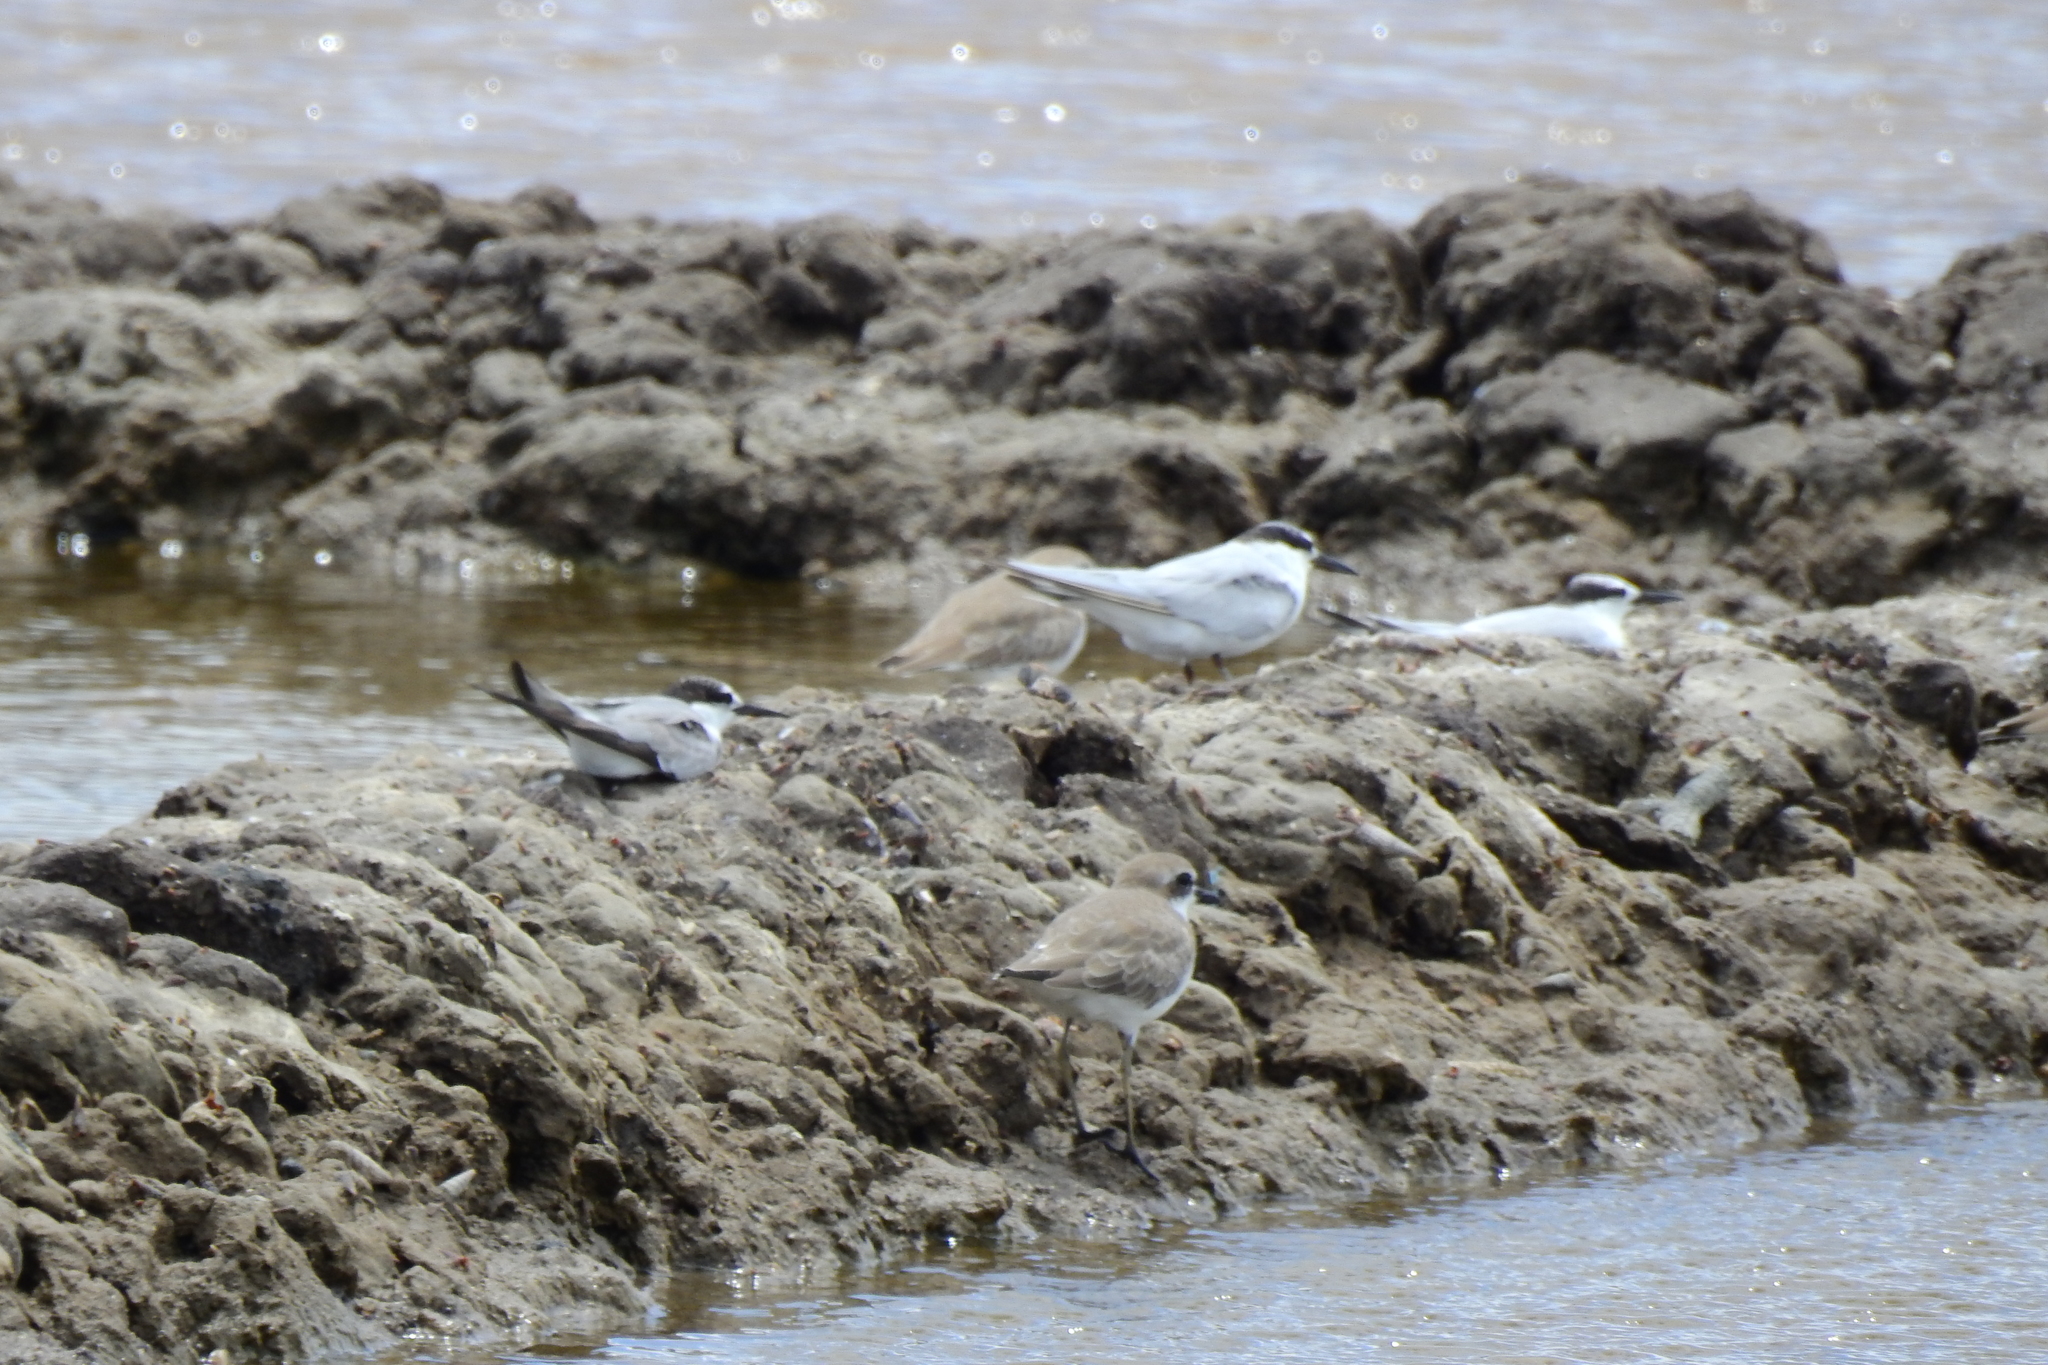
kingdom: Animalia
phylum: Chordata
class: Aves
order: Charadriiformes
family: Laridae
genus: Sternula
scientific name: Sternula albifrons
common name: Little tern
